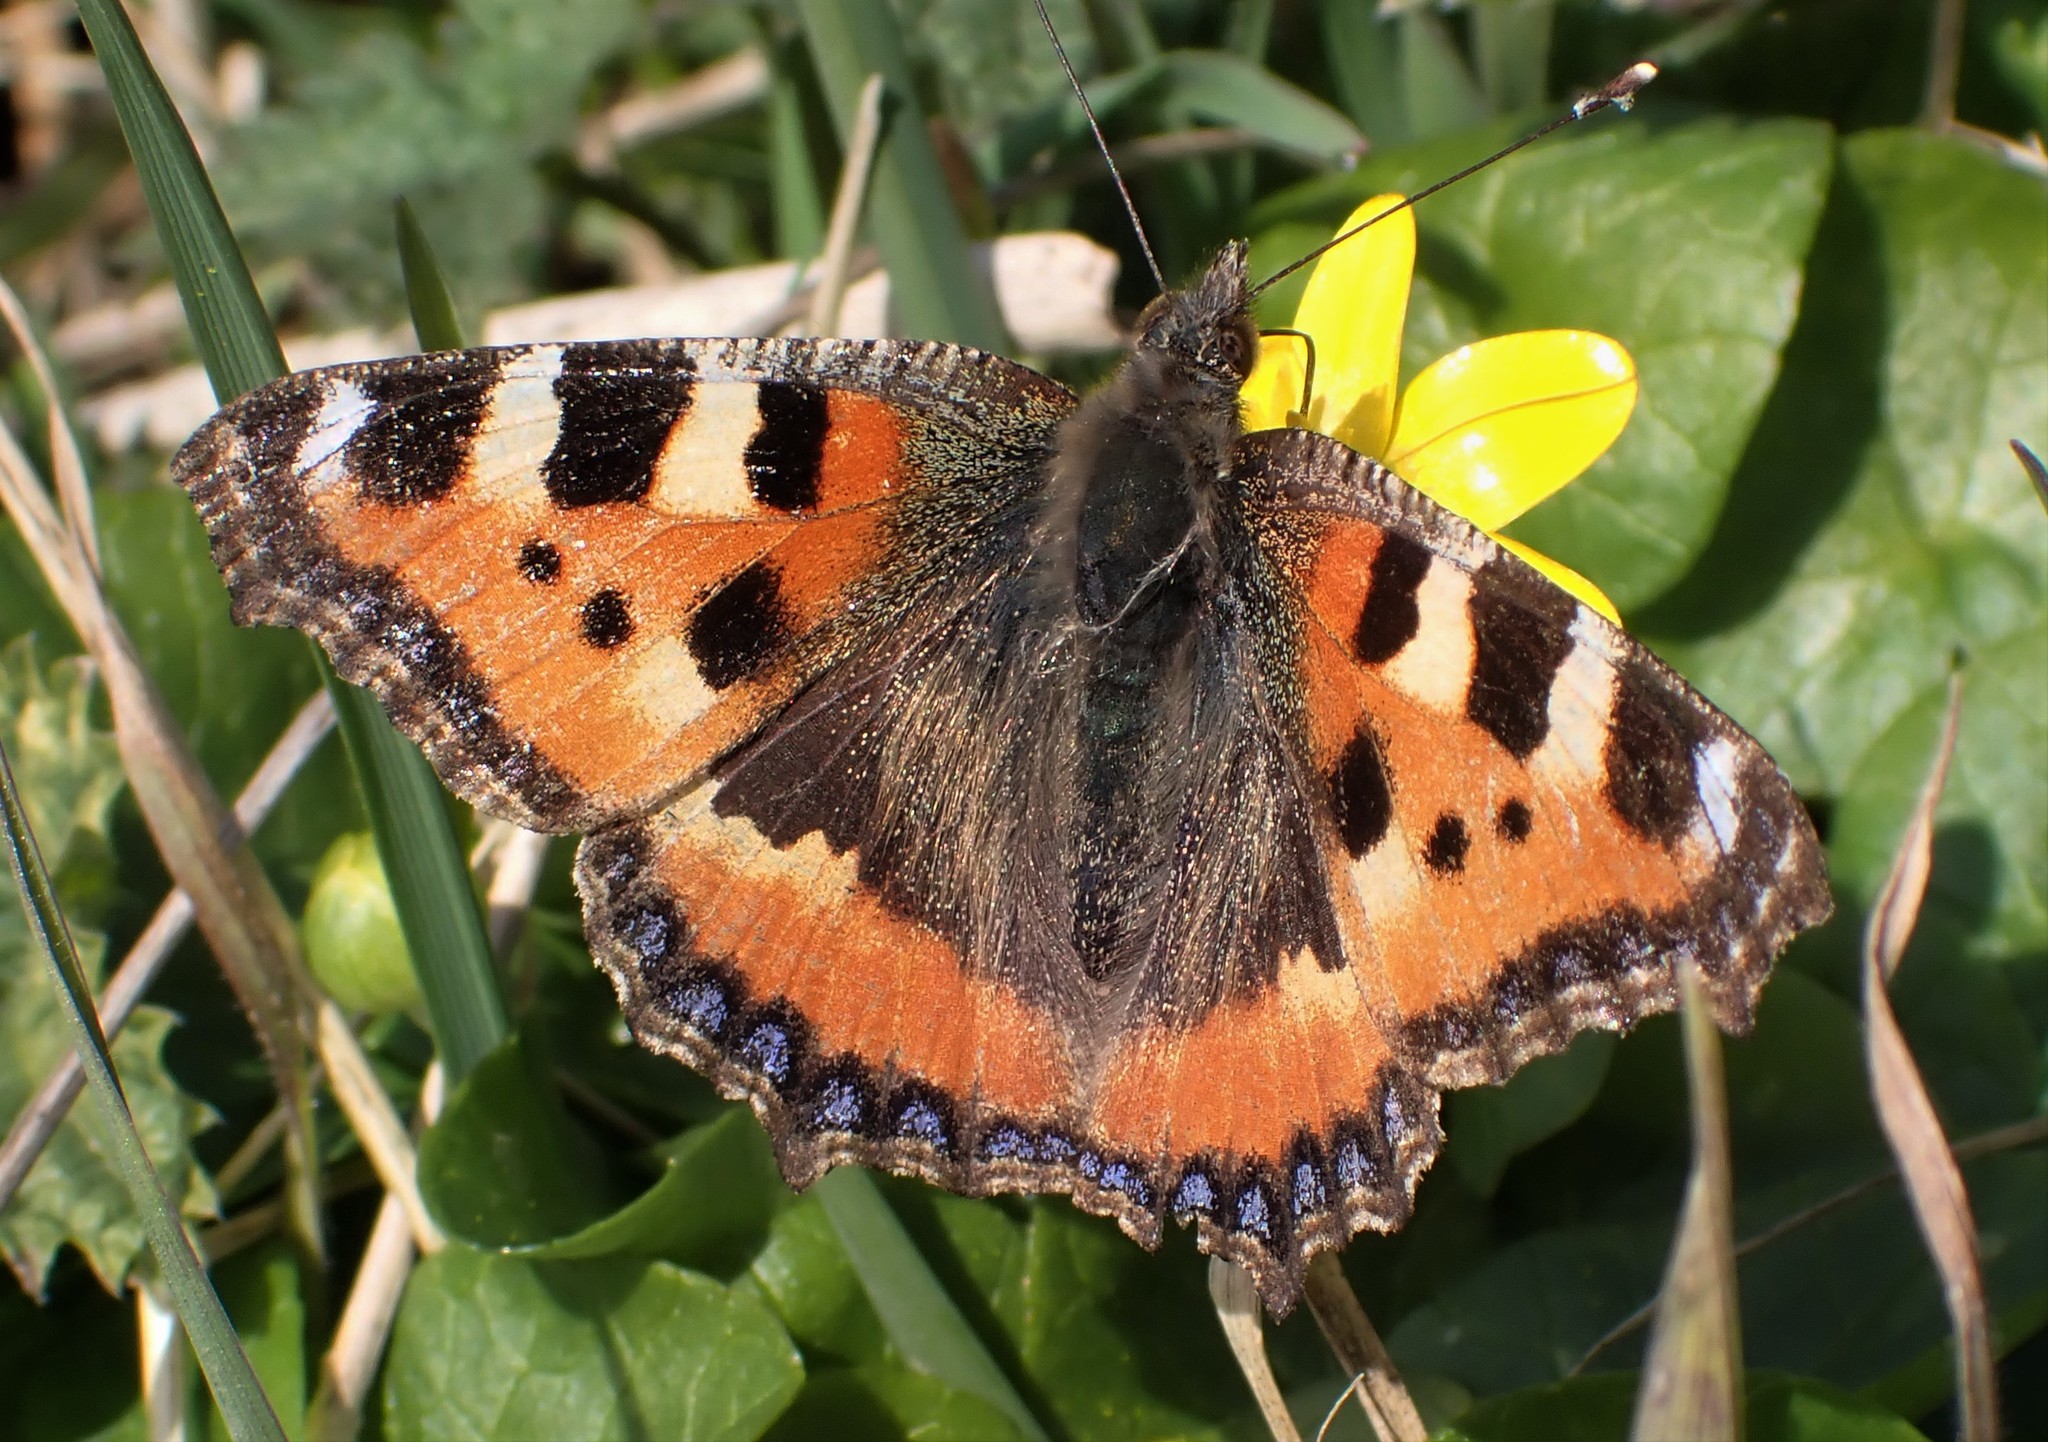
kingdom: Animalia
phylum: Arthropoda
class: Insecta
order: Lepidoptera
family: Nymphalidae
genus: Aglais
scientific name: Aglais urticae
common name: Small tortoiseshell
